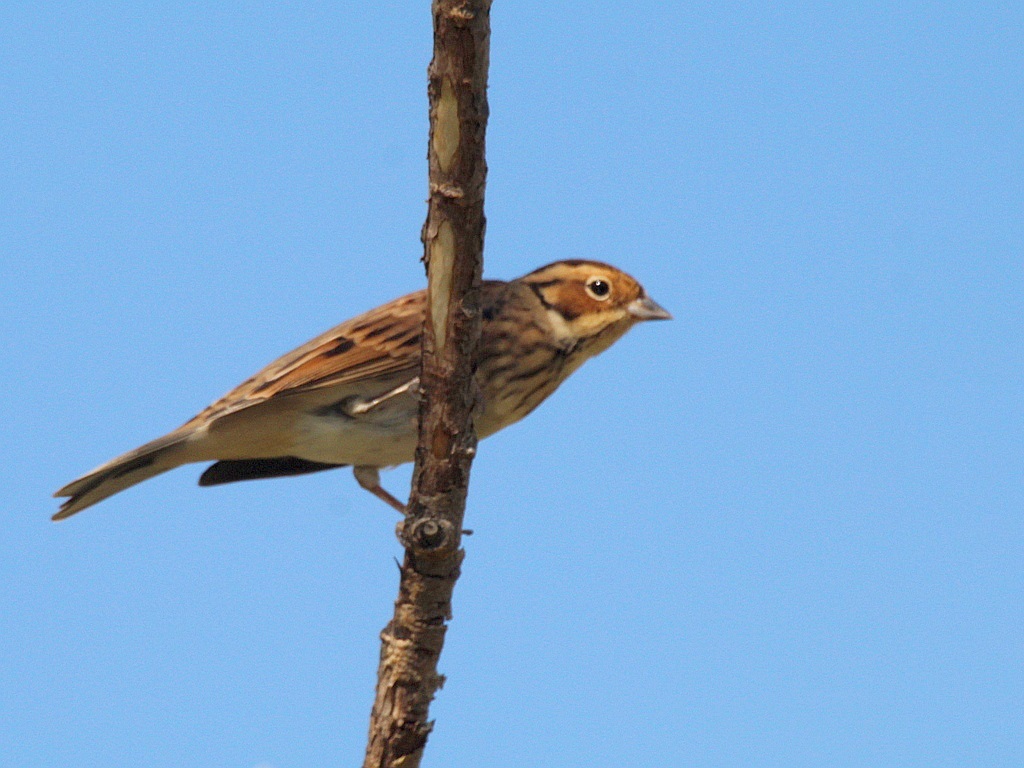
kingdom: Animalia
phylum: Chordata
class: Aves
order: Passeriformes
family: Emberizidae
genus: Emberiza
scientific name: Emberiza pusilla
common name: Little bunting
